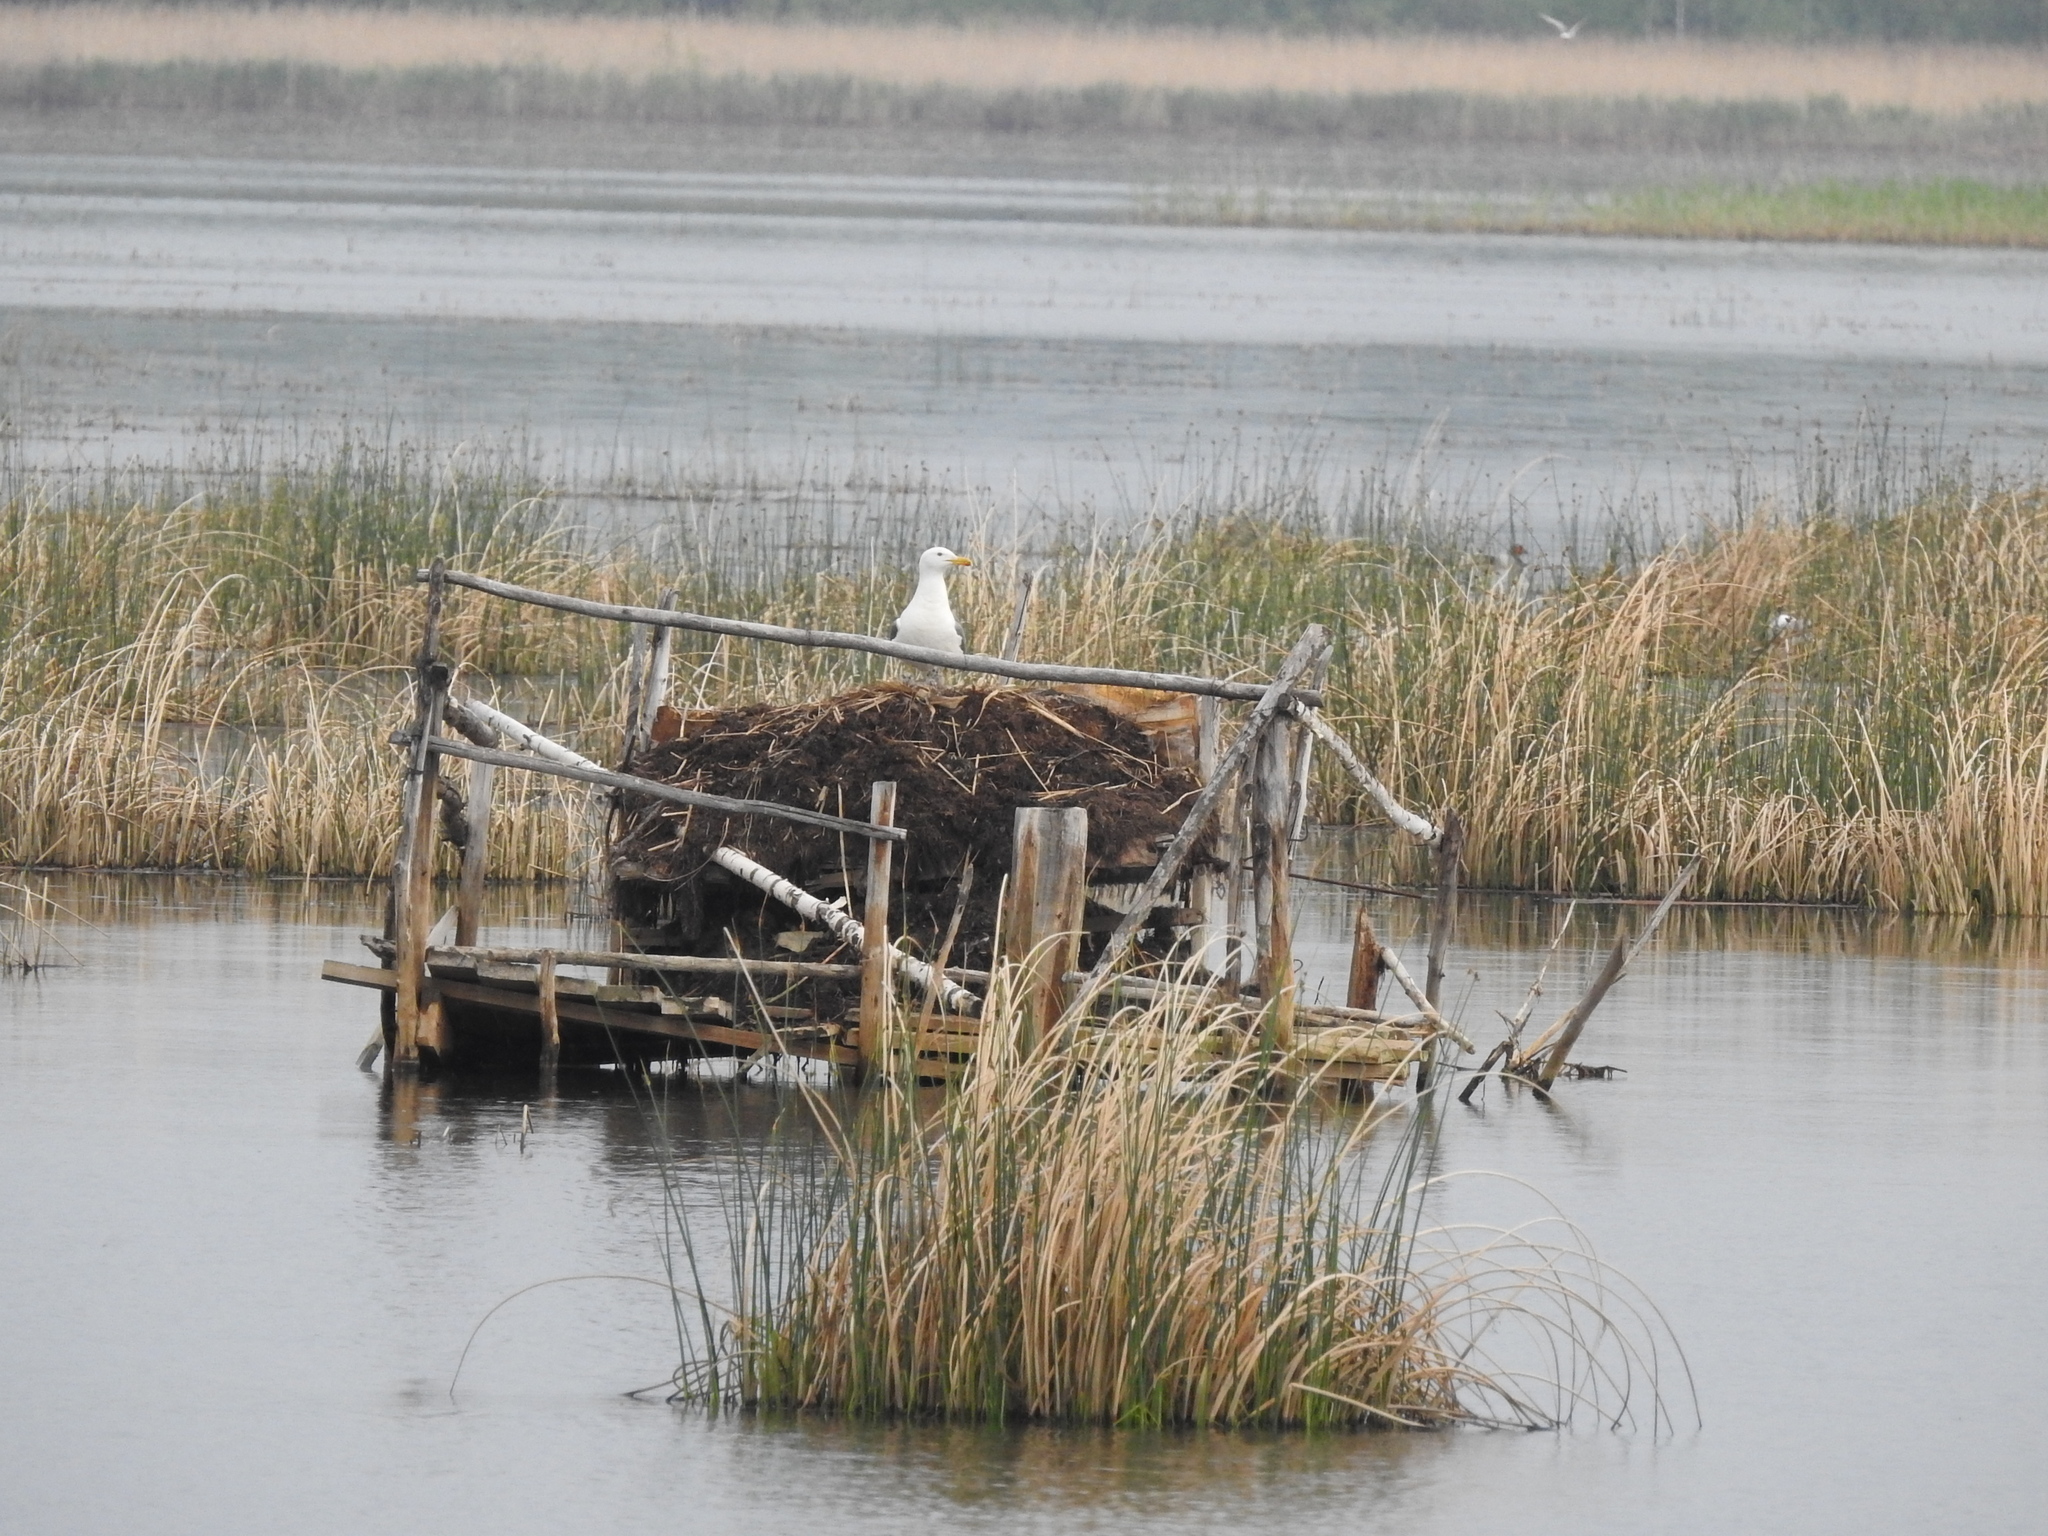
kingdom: Animalia
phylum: Chordata
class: Aves
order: Charadriiformes
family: Laridae
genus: Larus
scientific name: Larus fuscus
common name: Lesser black-backed gull
